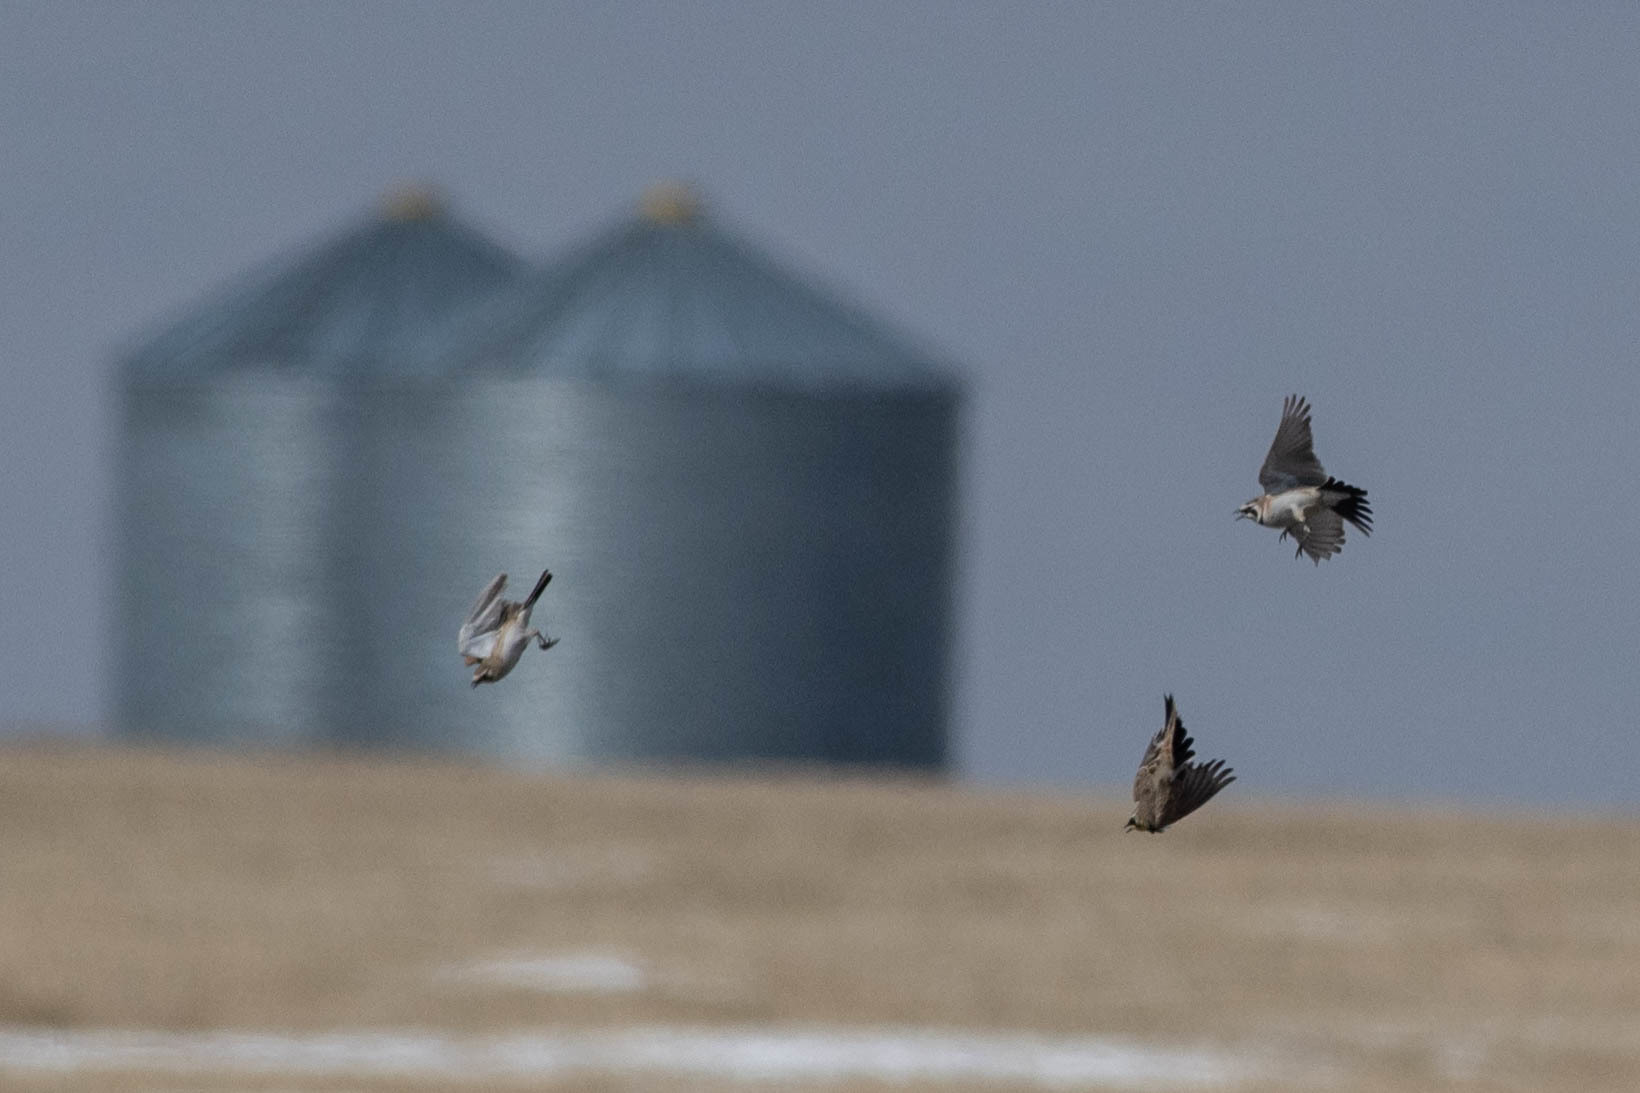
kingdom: Animalia
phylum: Chordata
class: Aves
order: Passeriformes
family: Alaudidae
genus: Eremophila
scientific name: Eremophila alpestris
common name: Horned lark
